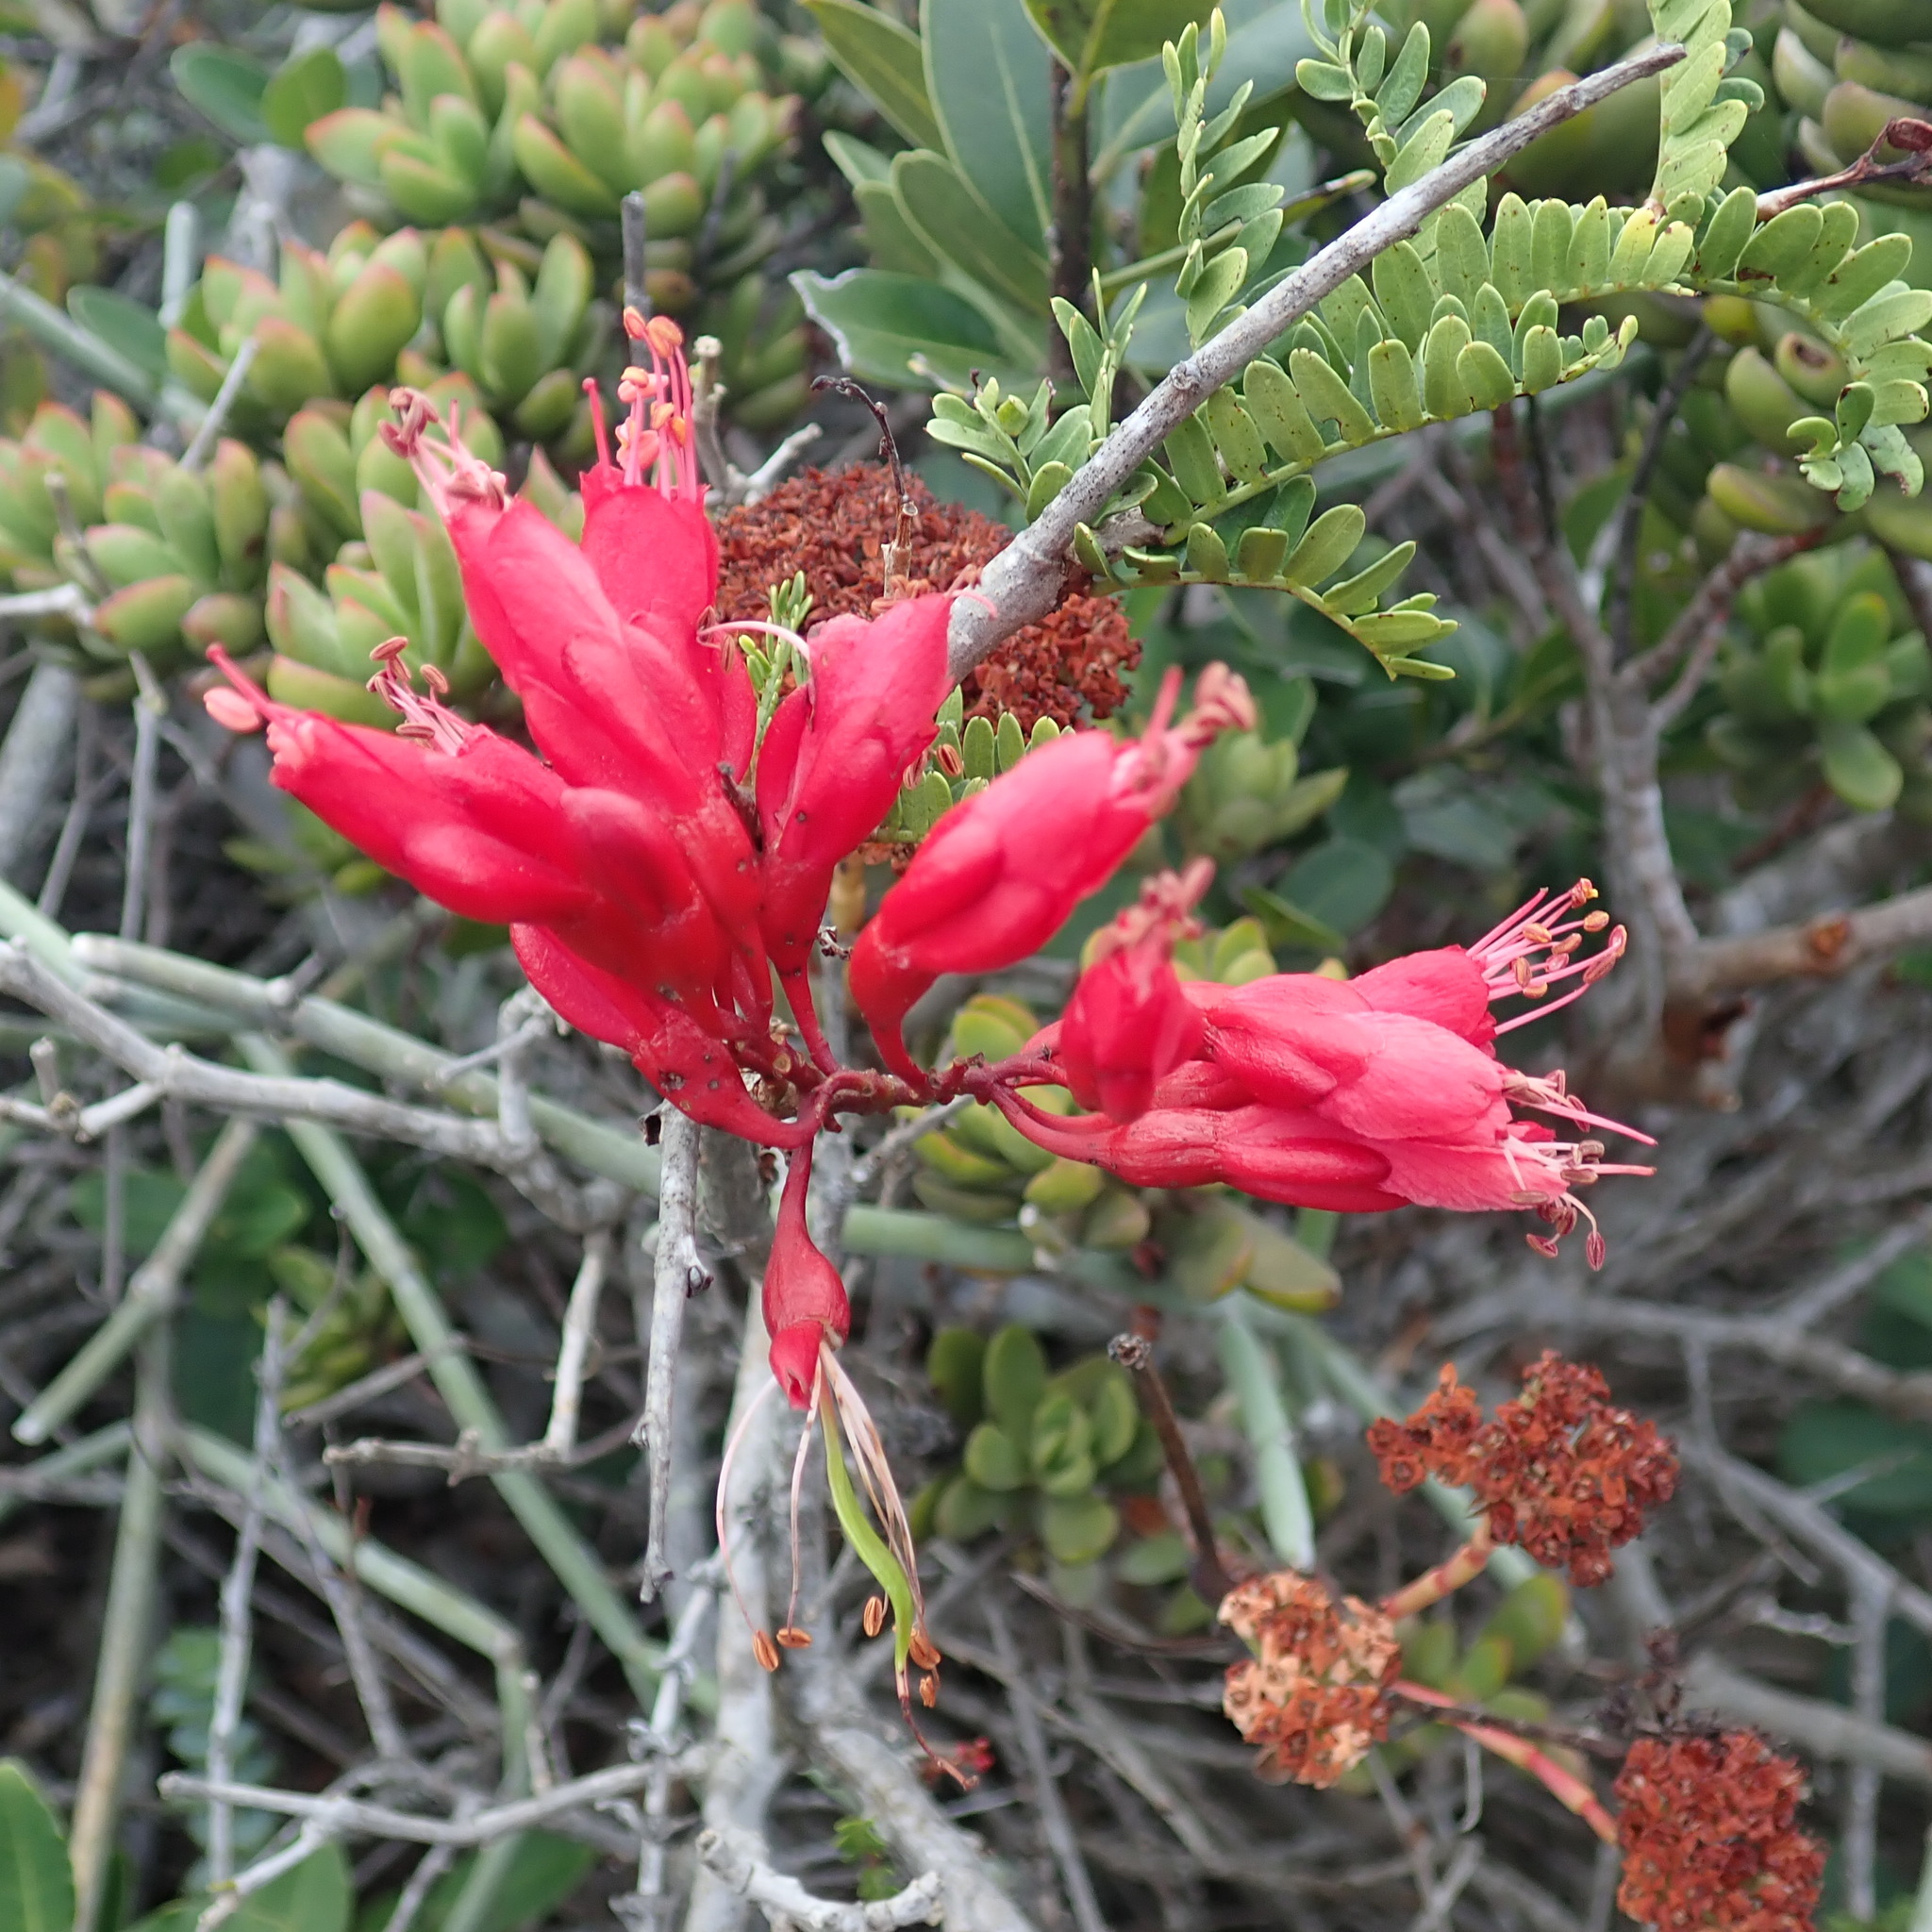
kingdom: Plantae
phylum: Tracheophyta
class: Magnoliopsida
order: Fabales
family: Fabaceae
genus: Schotia
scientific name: Schotia afra
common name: Hottentot's bean
